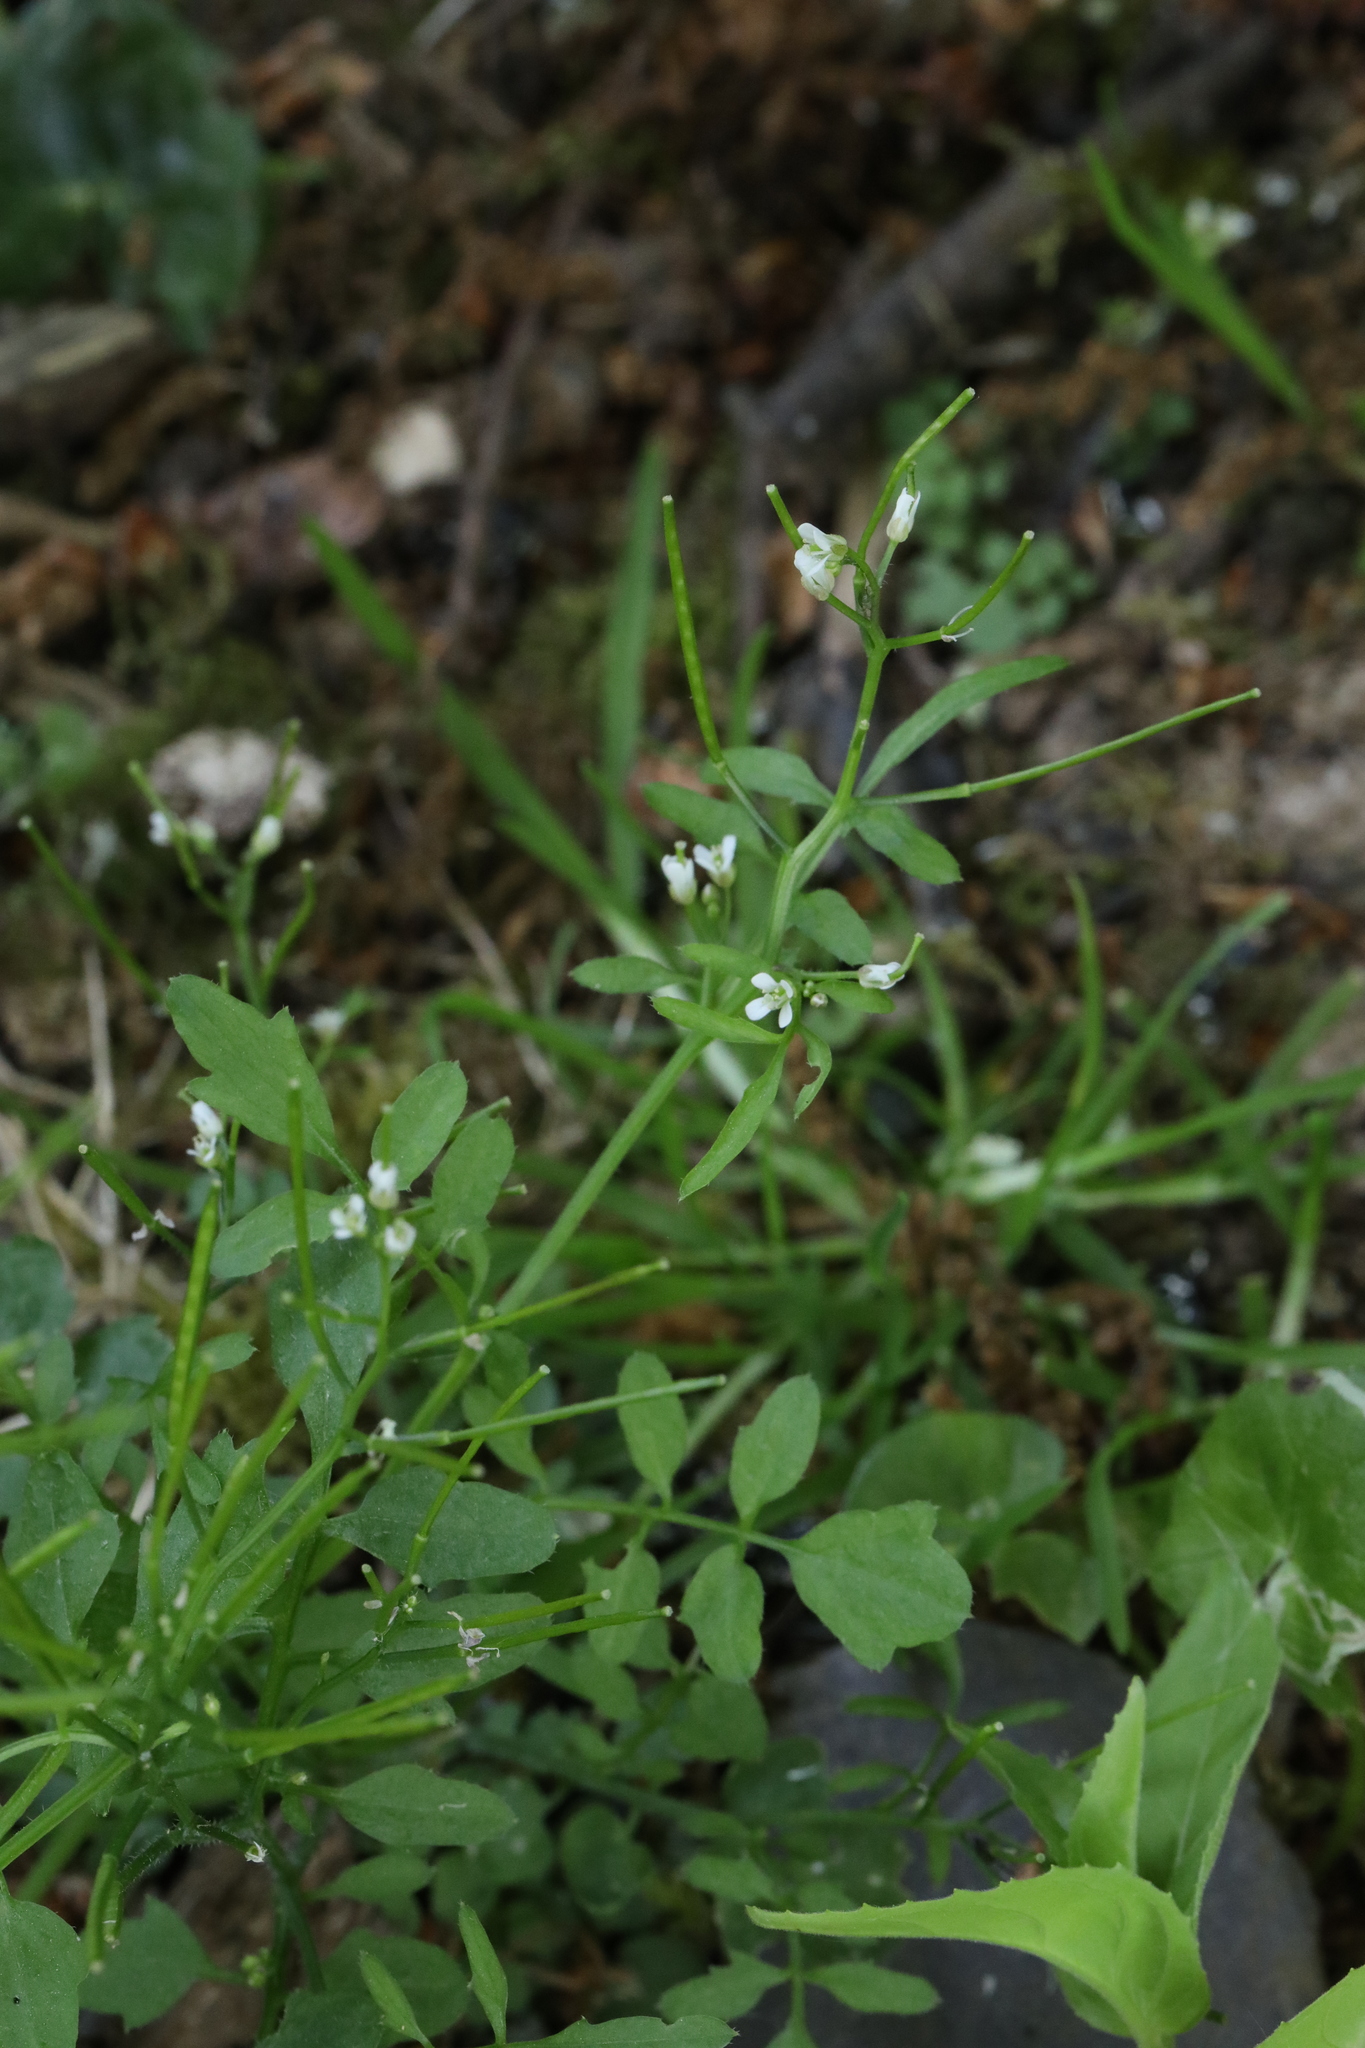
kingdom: Plantae
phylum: Tracheophyta
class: Magnoliopsida
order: Brassicales
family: Brassicaceae
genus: Cardamine
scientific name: Cardamine flexuosa
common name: Woodland bittercress
